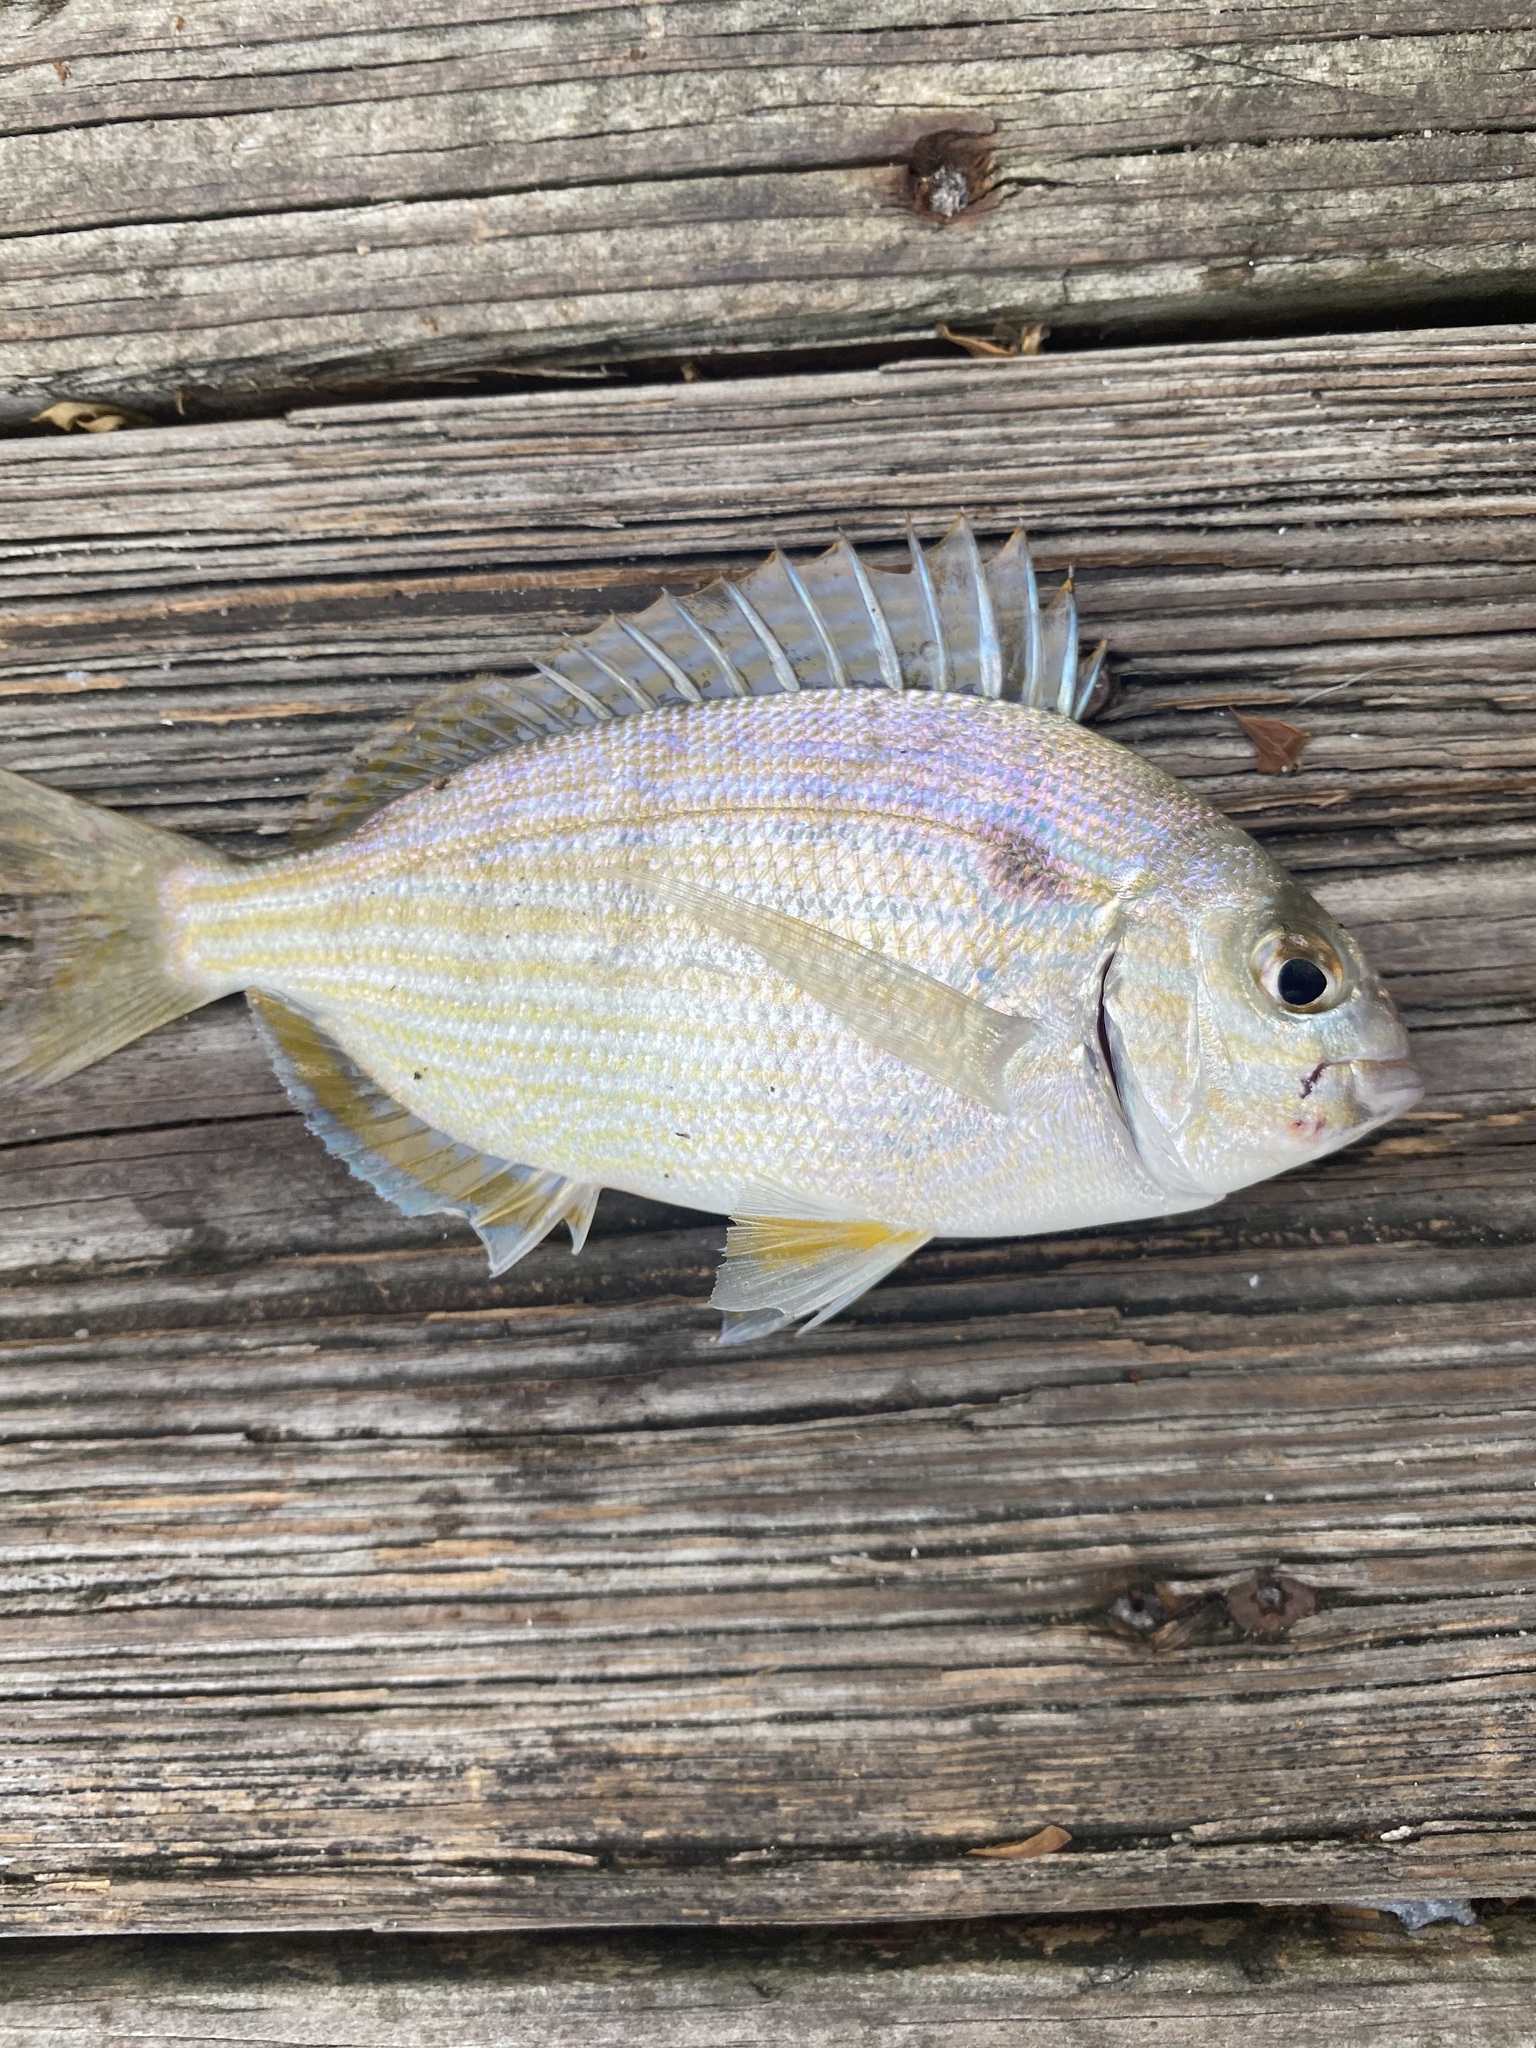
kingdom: Animalia
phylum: Chordata
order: Perciformes
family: Sparidae
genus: Lagodon
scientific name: Lagodon rhomboides
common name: Pinfish
